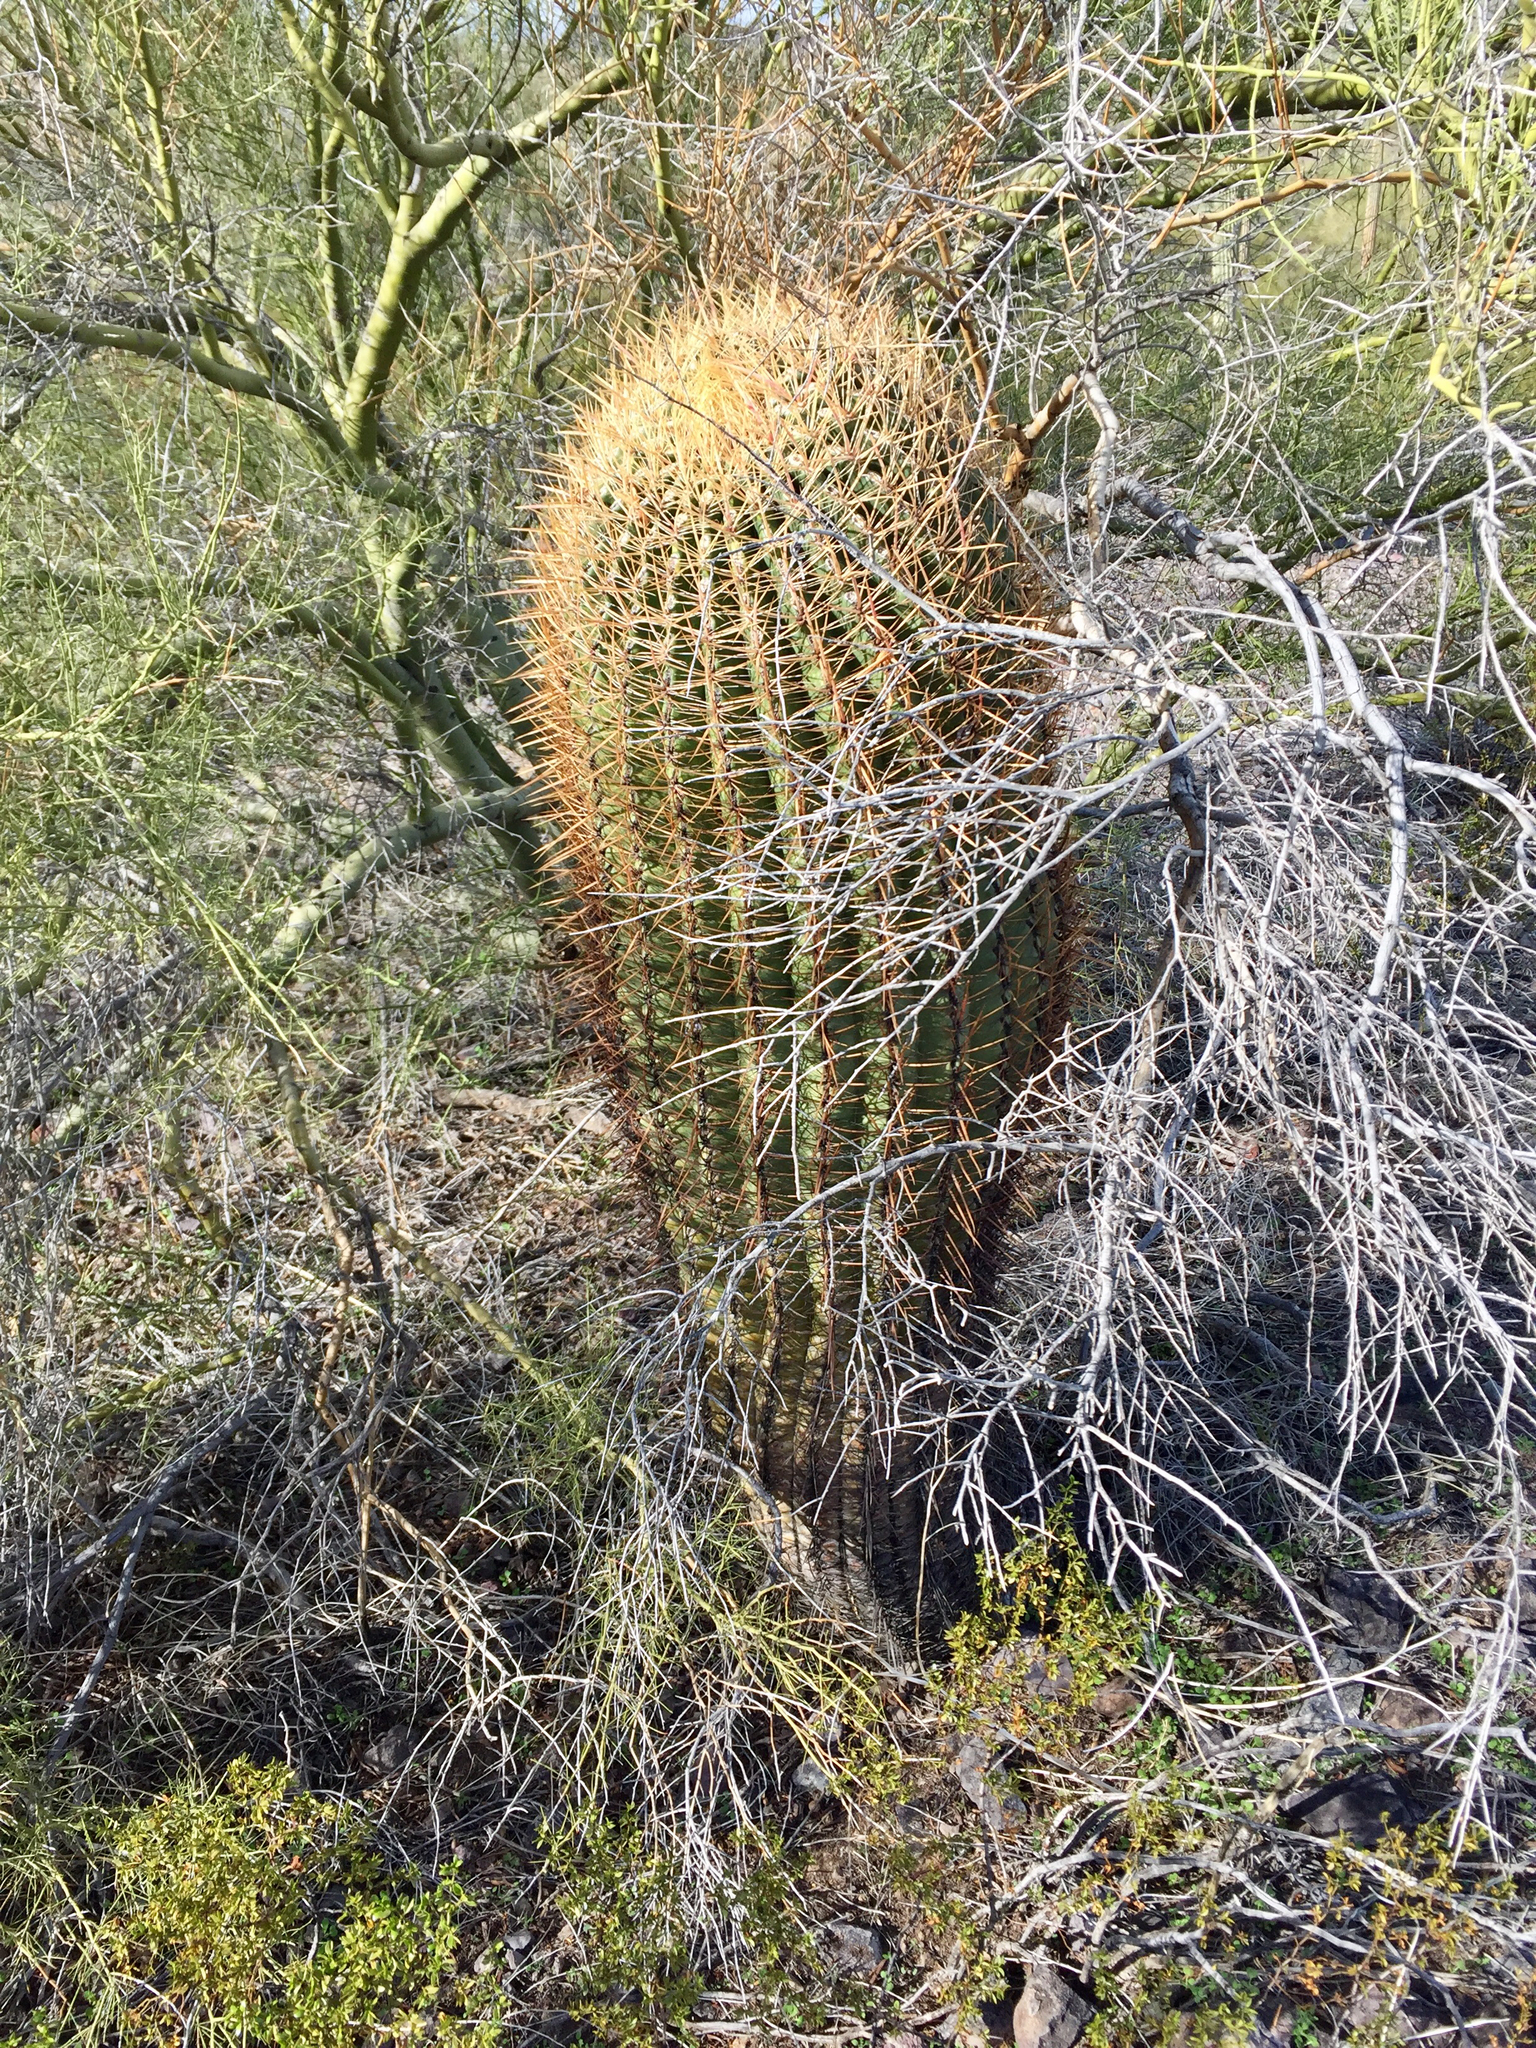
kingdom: Plantae
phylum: Tracheophyta
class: Magnoliopsida
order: Caryophyllales
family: Cactaceae
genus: Ferocactus
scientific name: Ferocactus cylindraceus
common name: California barrel cactus
